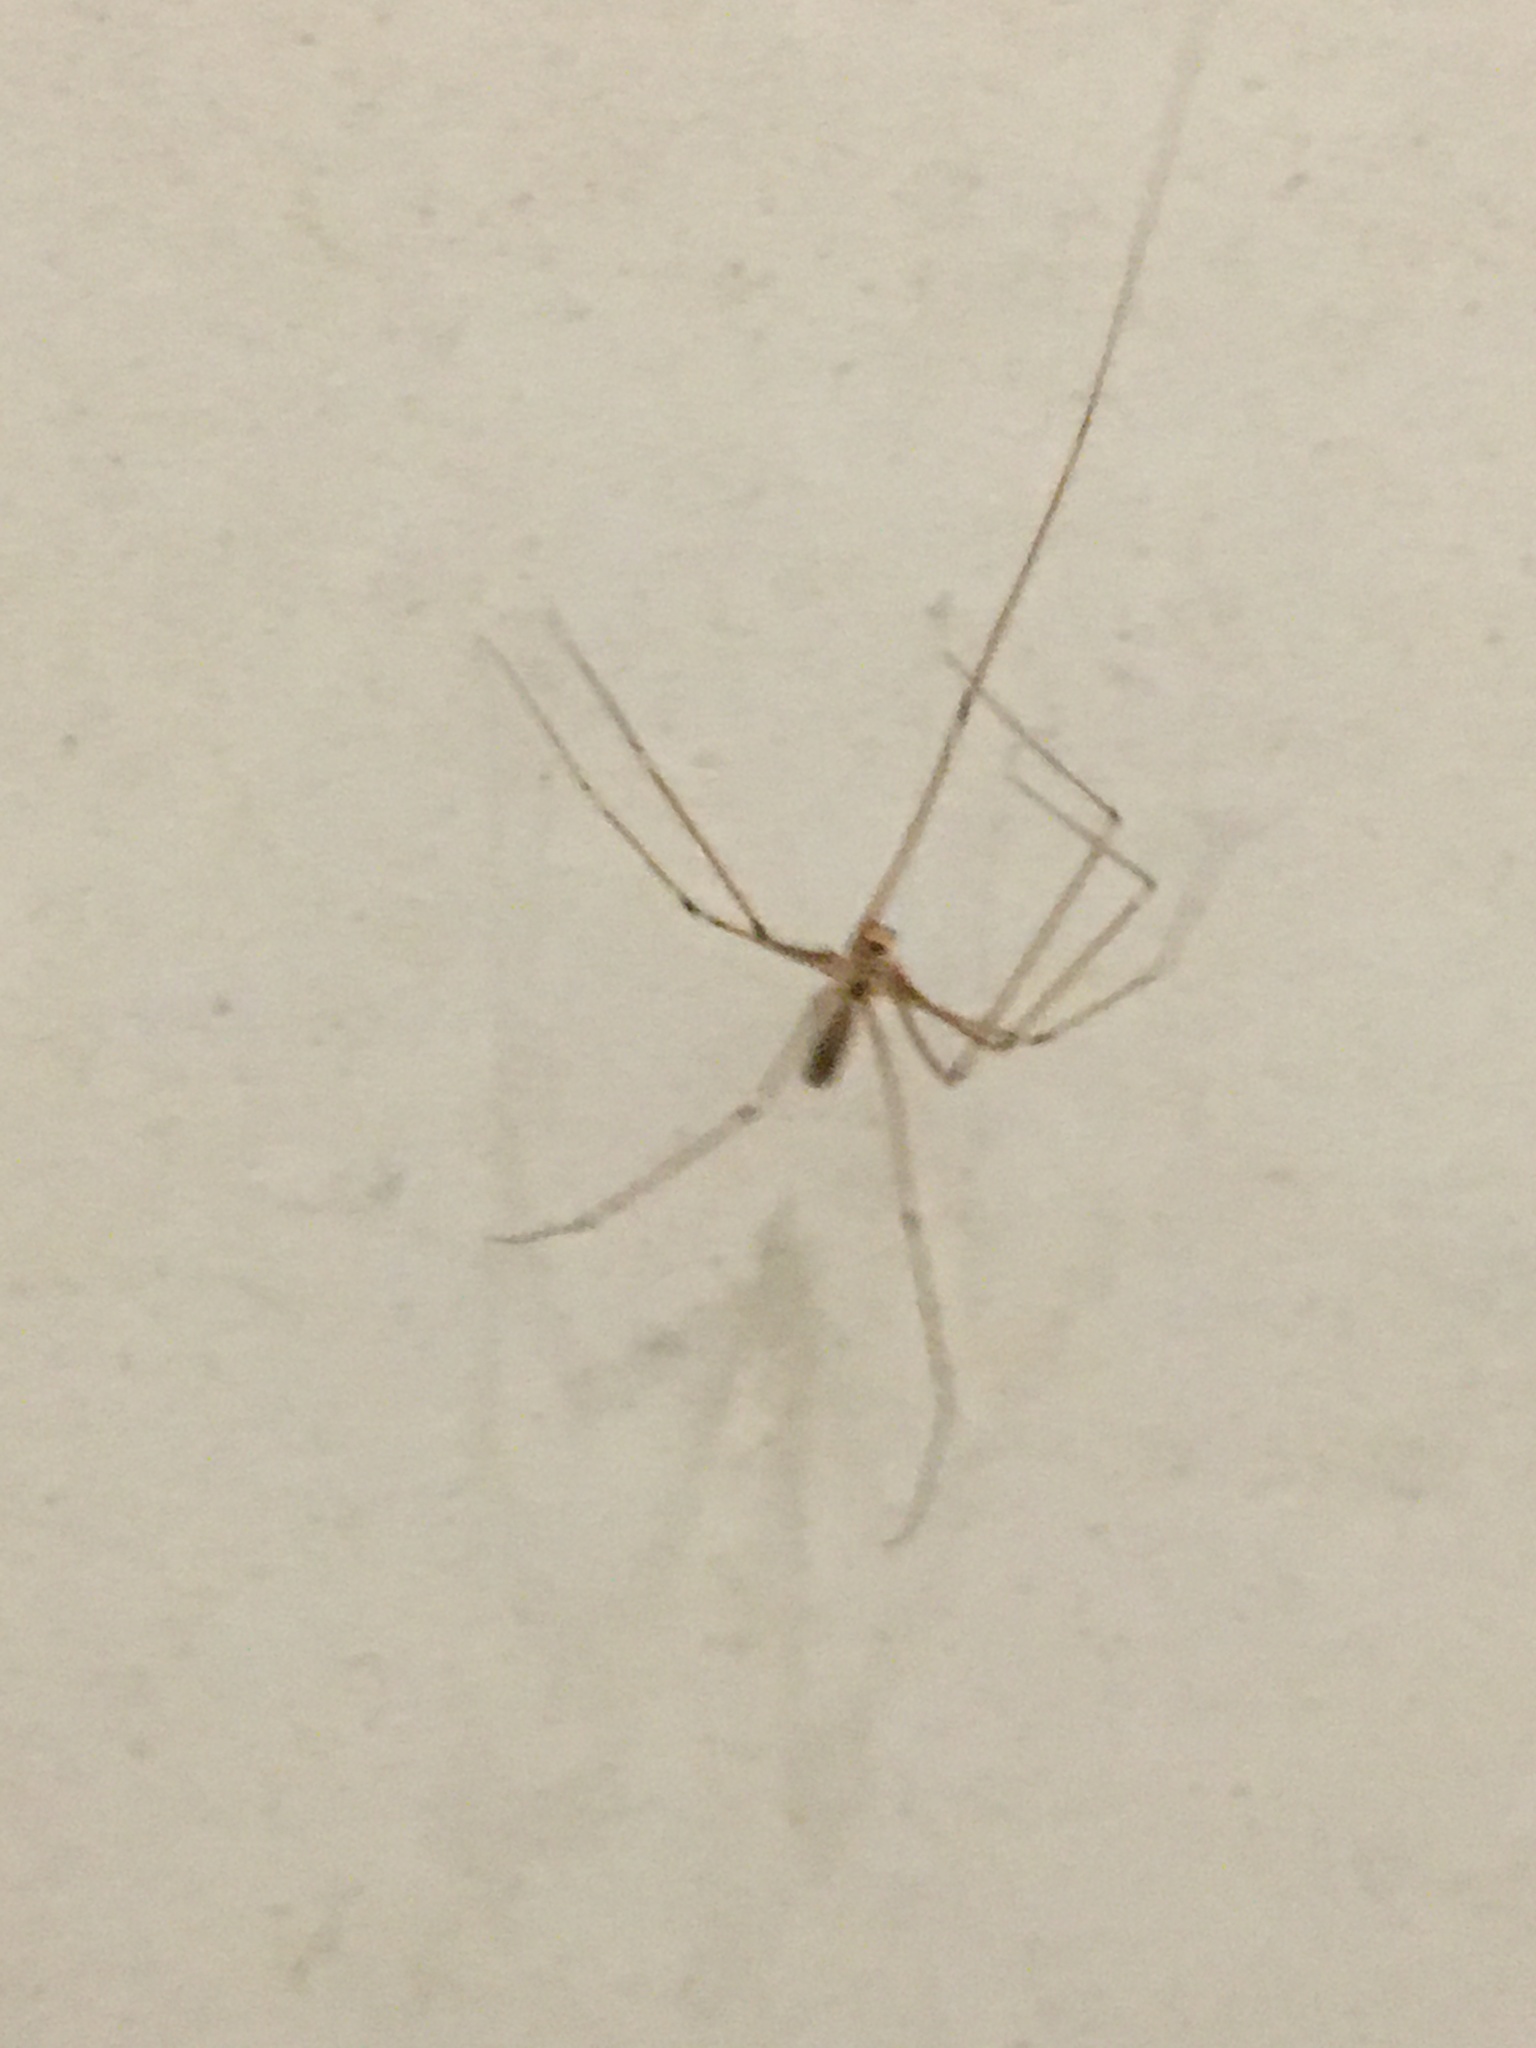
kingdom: Animalia
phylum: Arthropoda
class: Arachnida
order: Araneae
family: Pholcidae
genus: Pholcus
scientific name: Pholcus phalangioides
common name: Longbodied cellar spider
